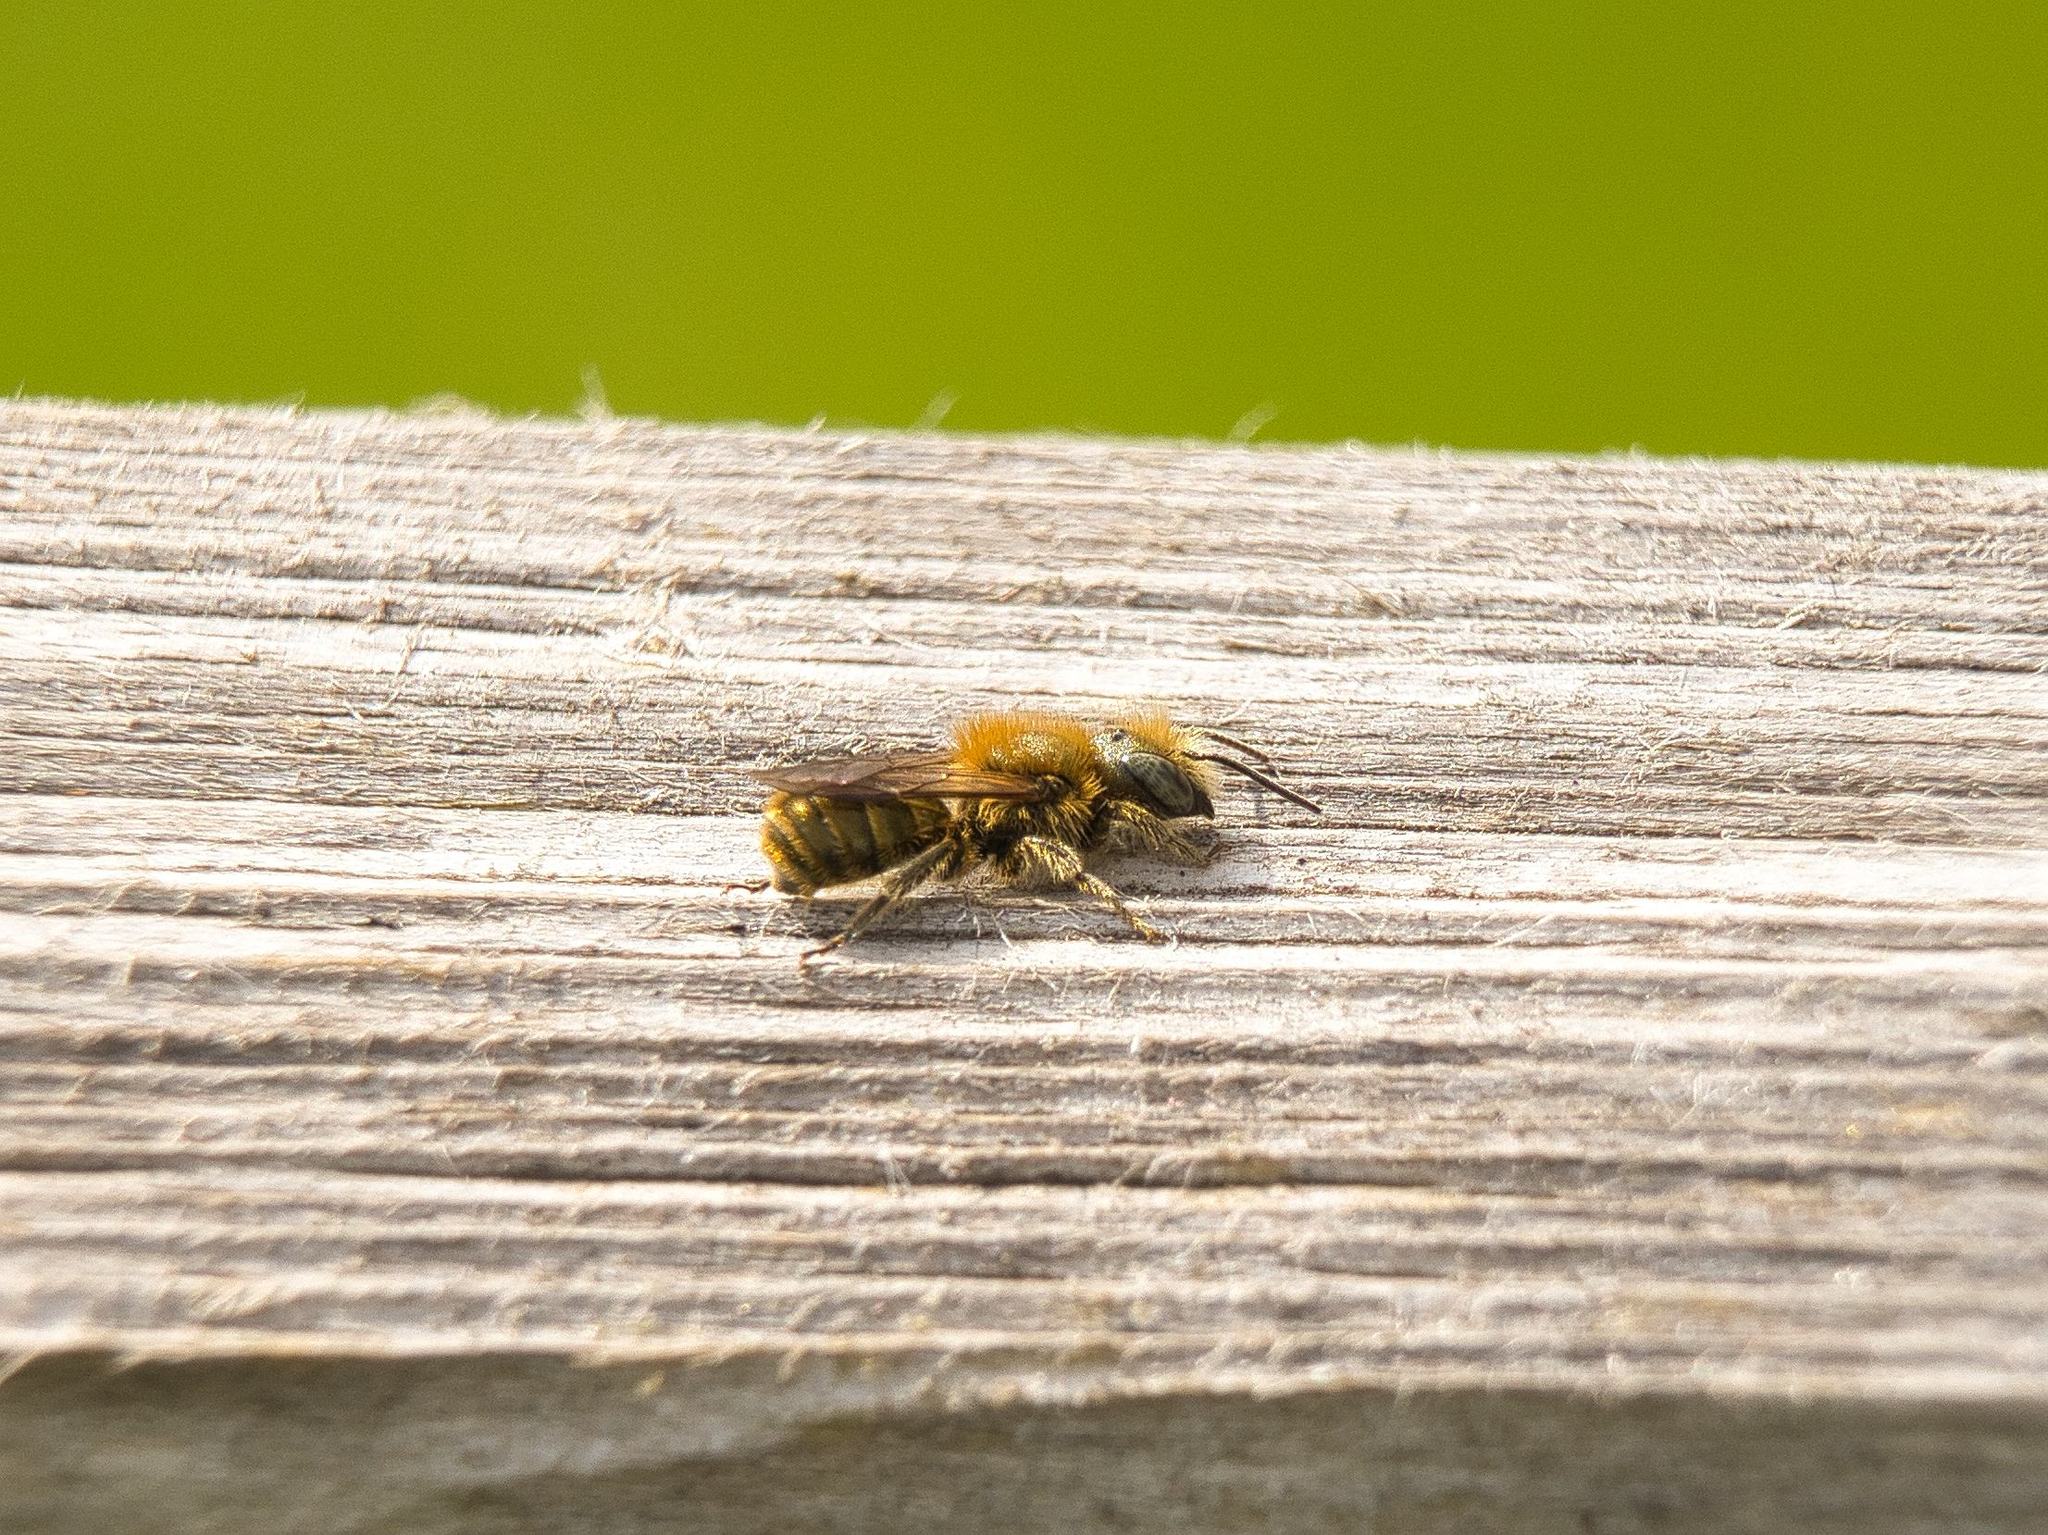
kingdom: Animalia
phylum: Arthropoda
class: Insecta
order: Hymenoptera
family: Megachilidae
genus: Osmia
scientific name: Osmia caerulescens
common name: Blue mason bee
